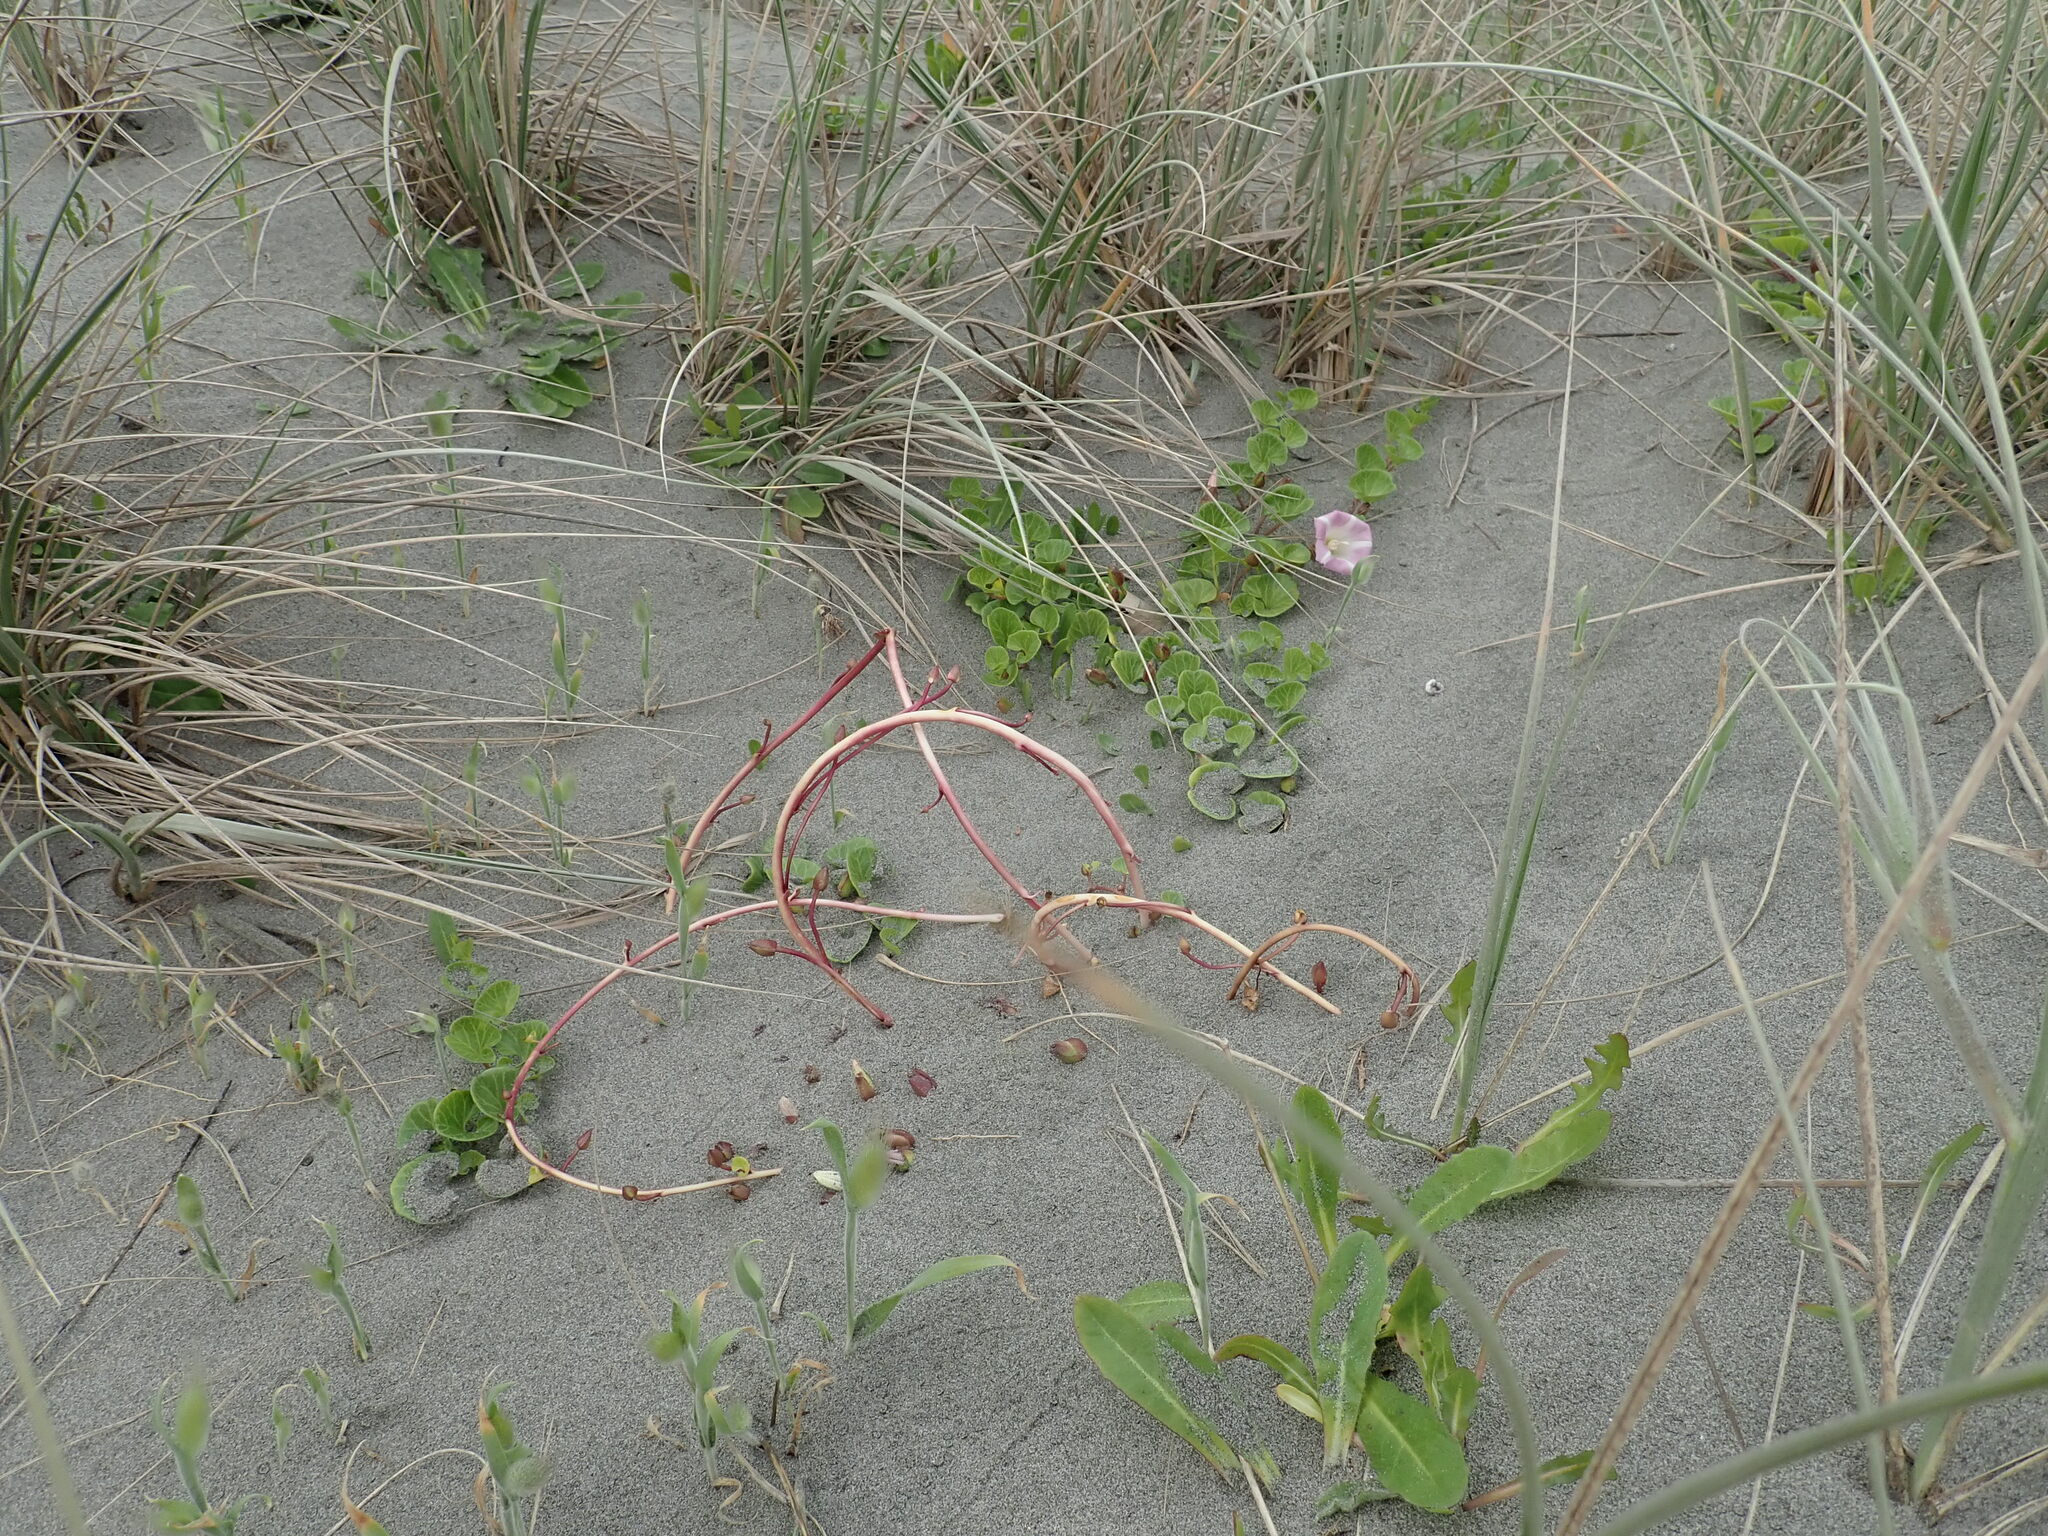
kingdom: Plantae
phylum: Tracheophyta
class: Magnoliopsida
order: Solanales
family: Convolvulaceae
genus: Calystegia
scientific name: Calystegia soldanella
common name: Sea bindweed
